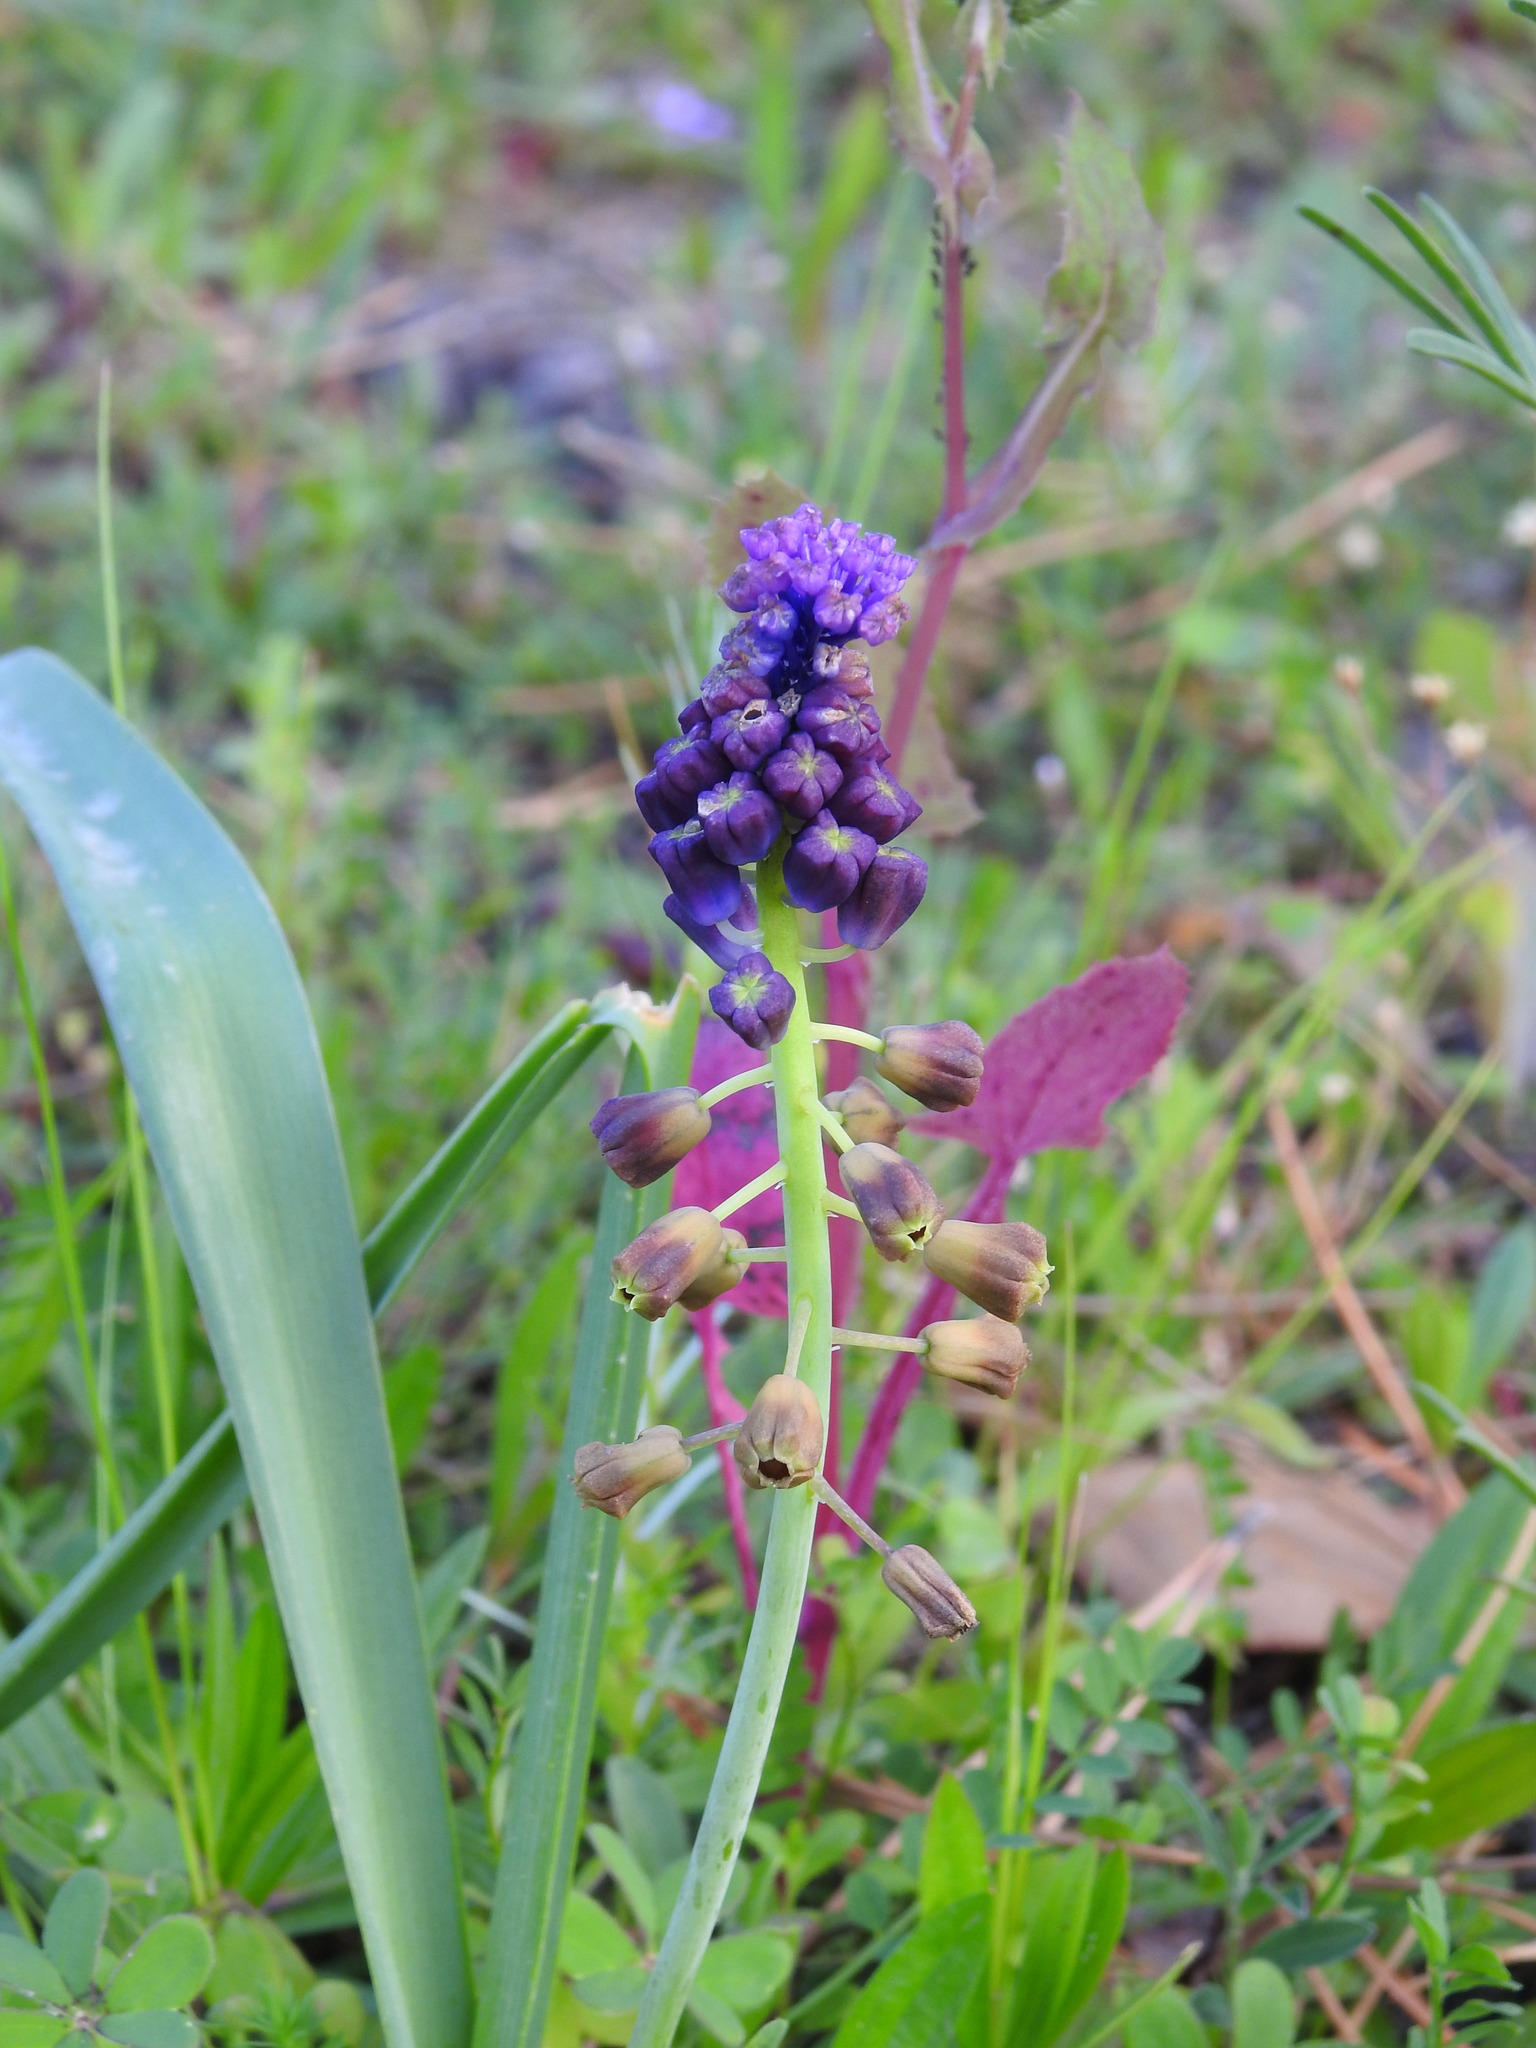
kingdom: Plantae
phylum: Tracheophyta
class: Liliopsida
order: Asparagales
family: Asparagaceae
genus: Muscari
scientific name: Muscari comosum
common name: Tassel hyacinth
